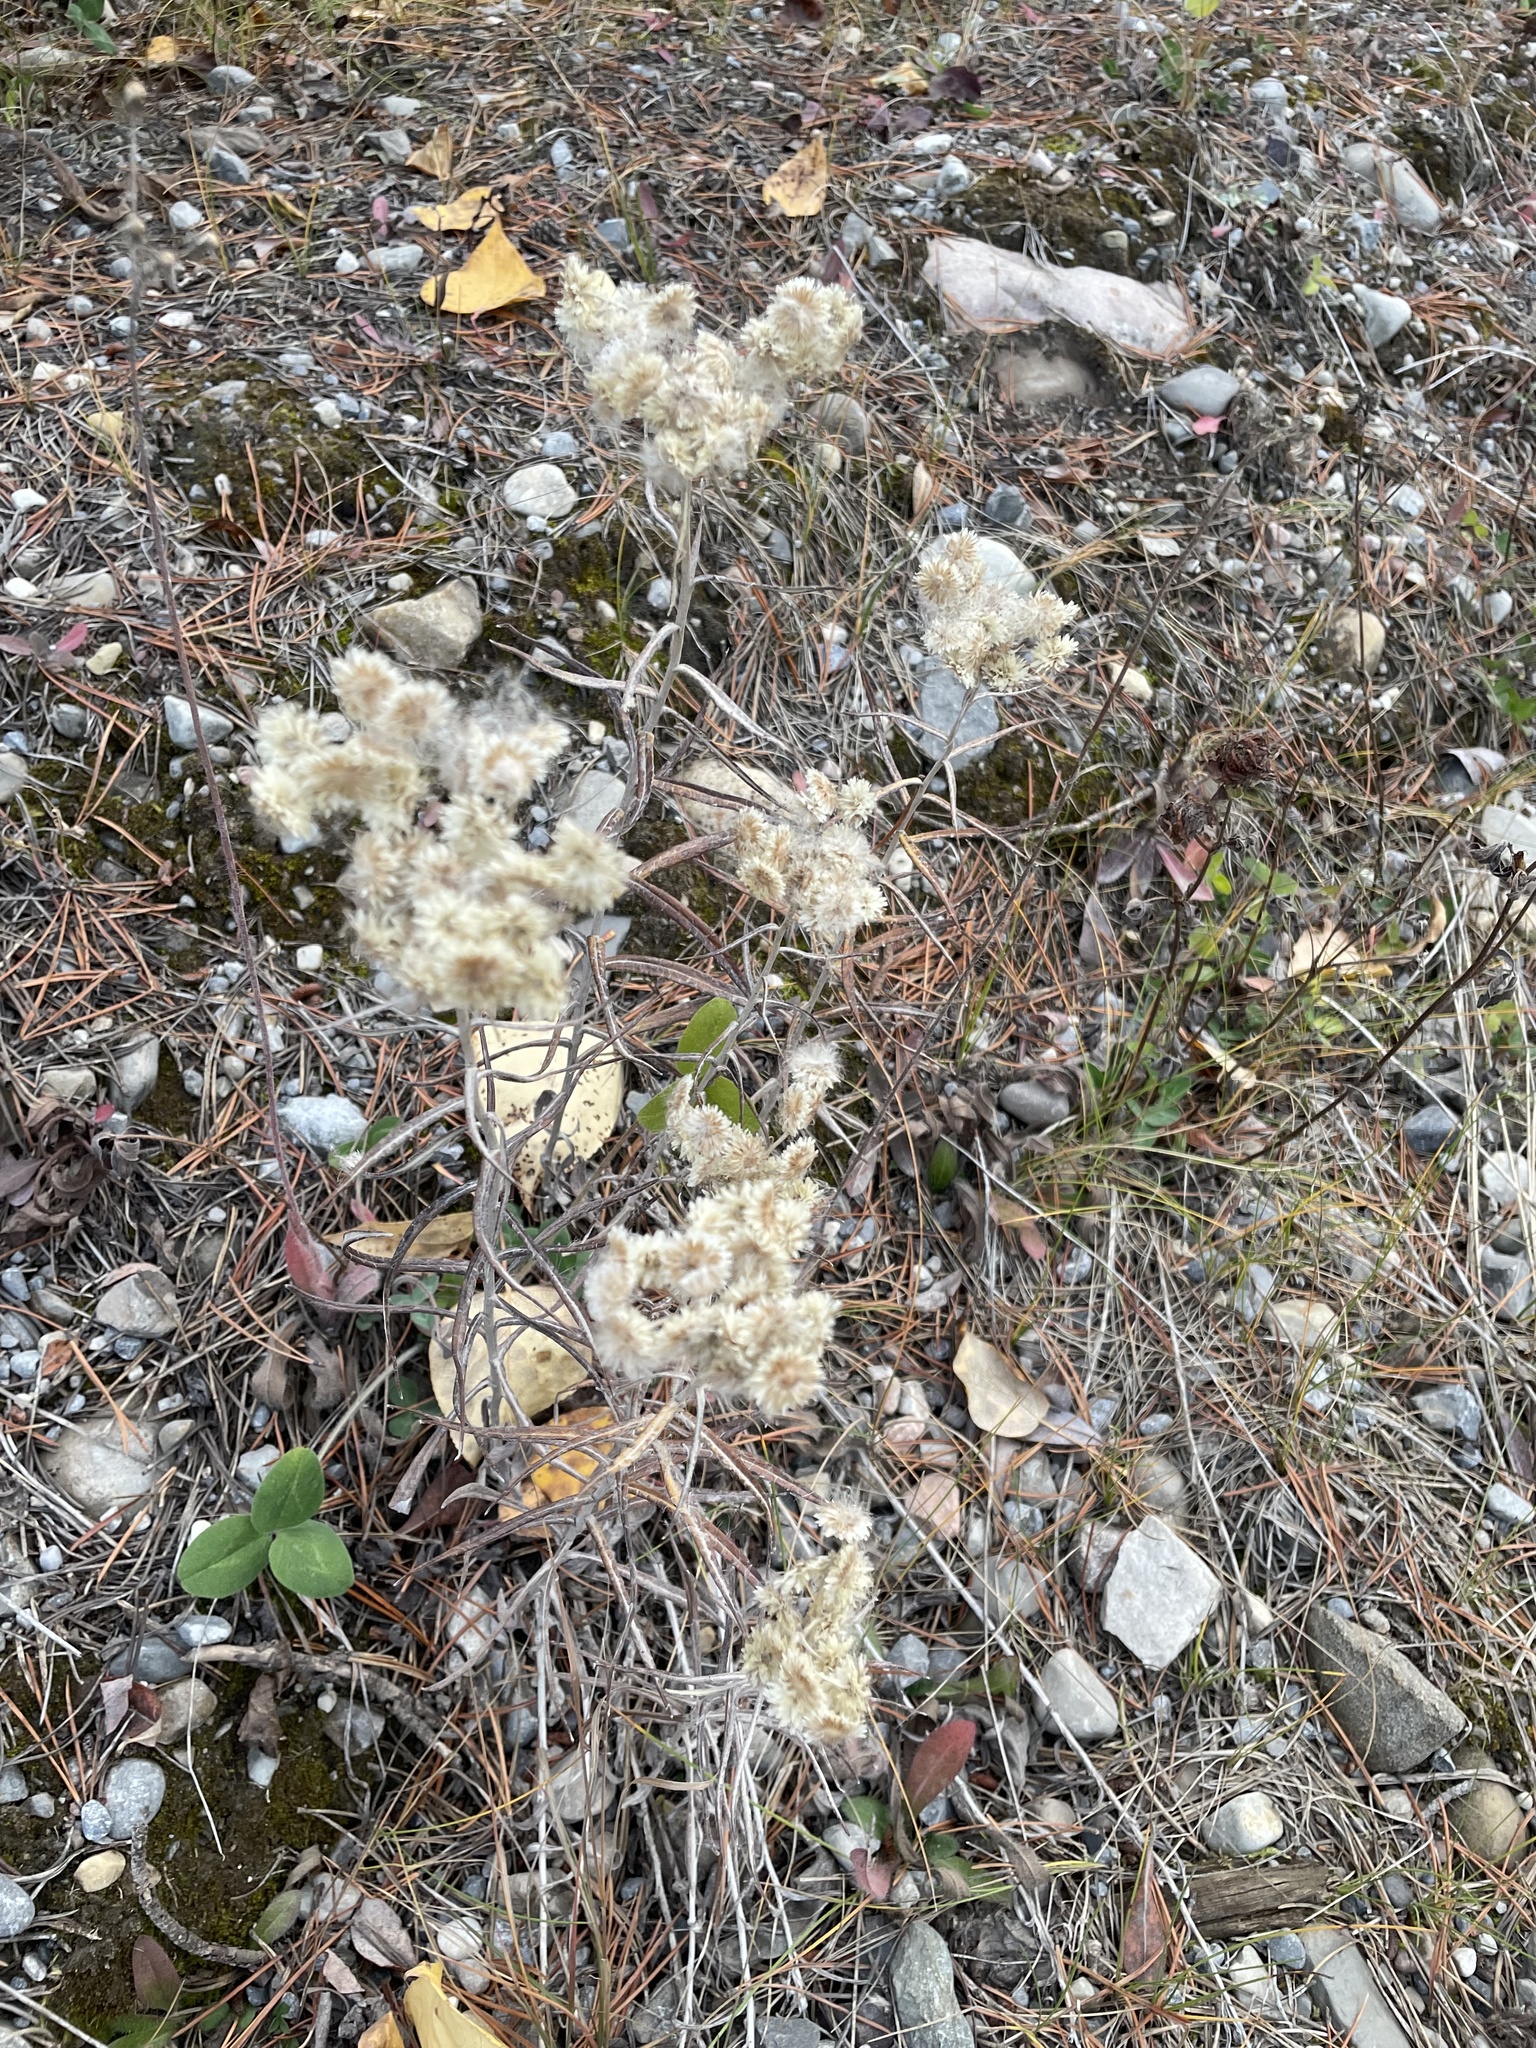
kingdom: Plantae
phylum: Tracheophyta
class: Magnoliopsida
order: Asterales
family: Asteraceae
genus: Anaphalis
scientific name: Anaphalis margaritacea
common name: Pearly everlasting
